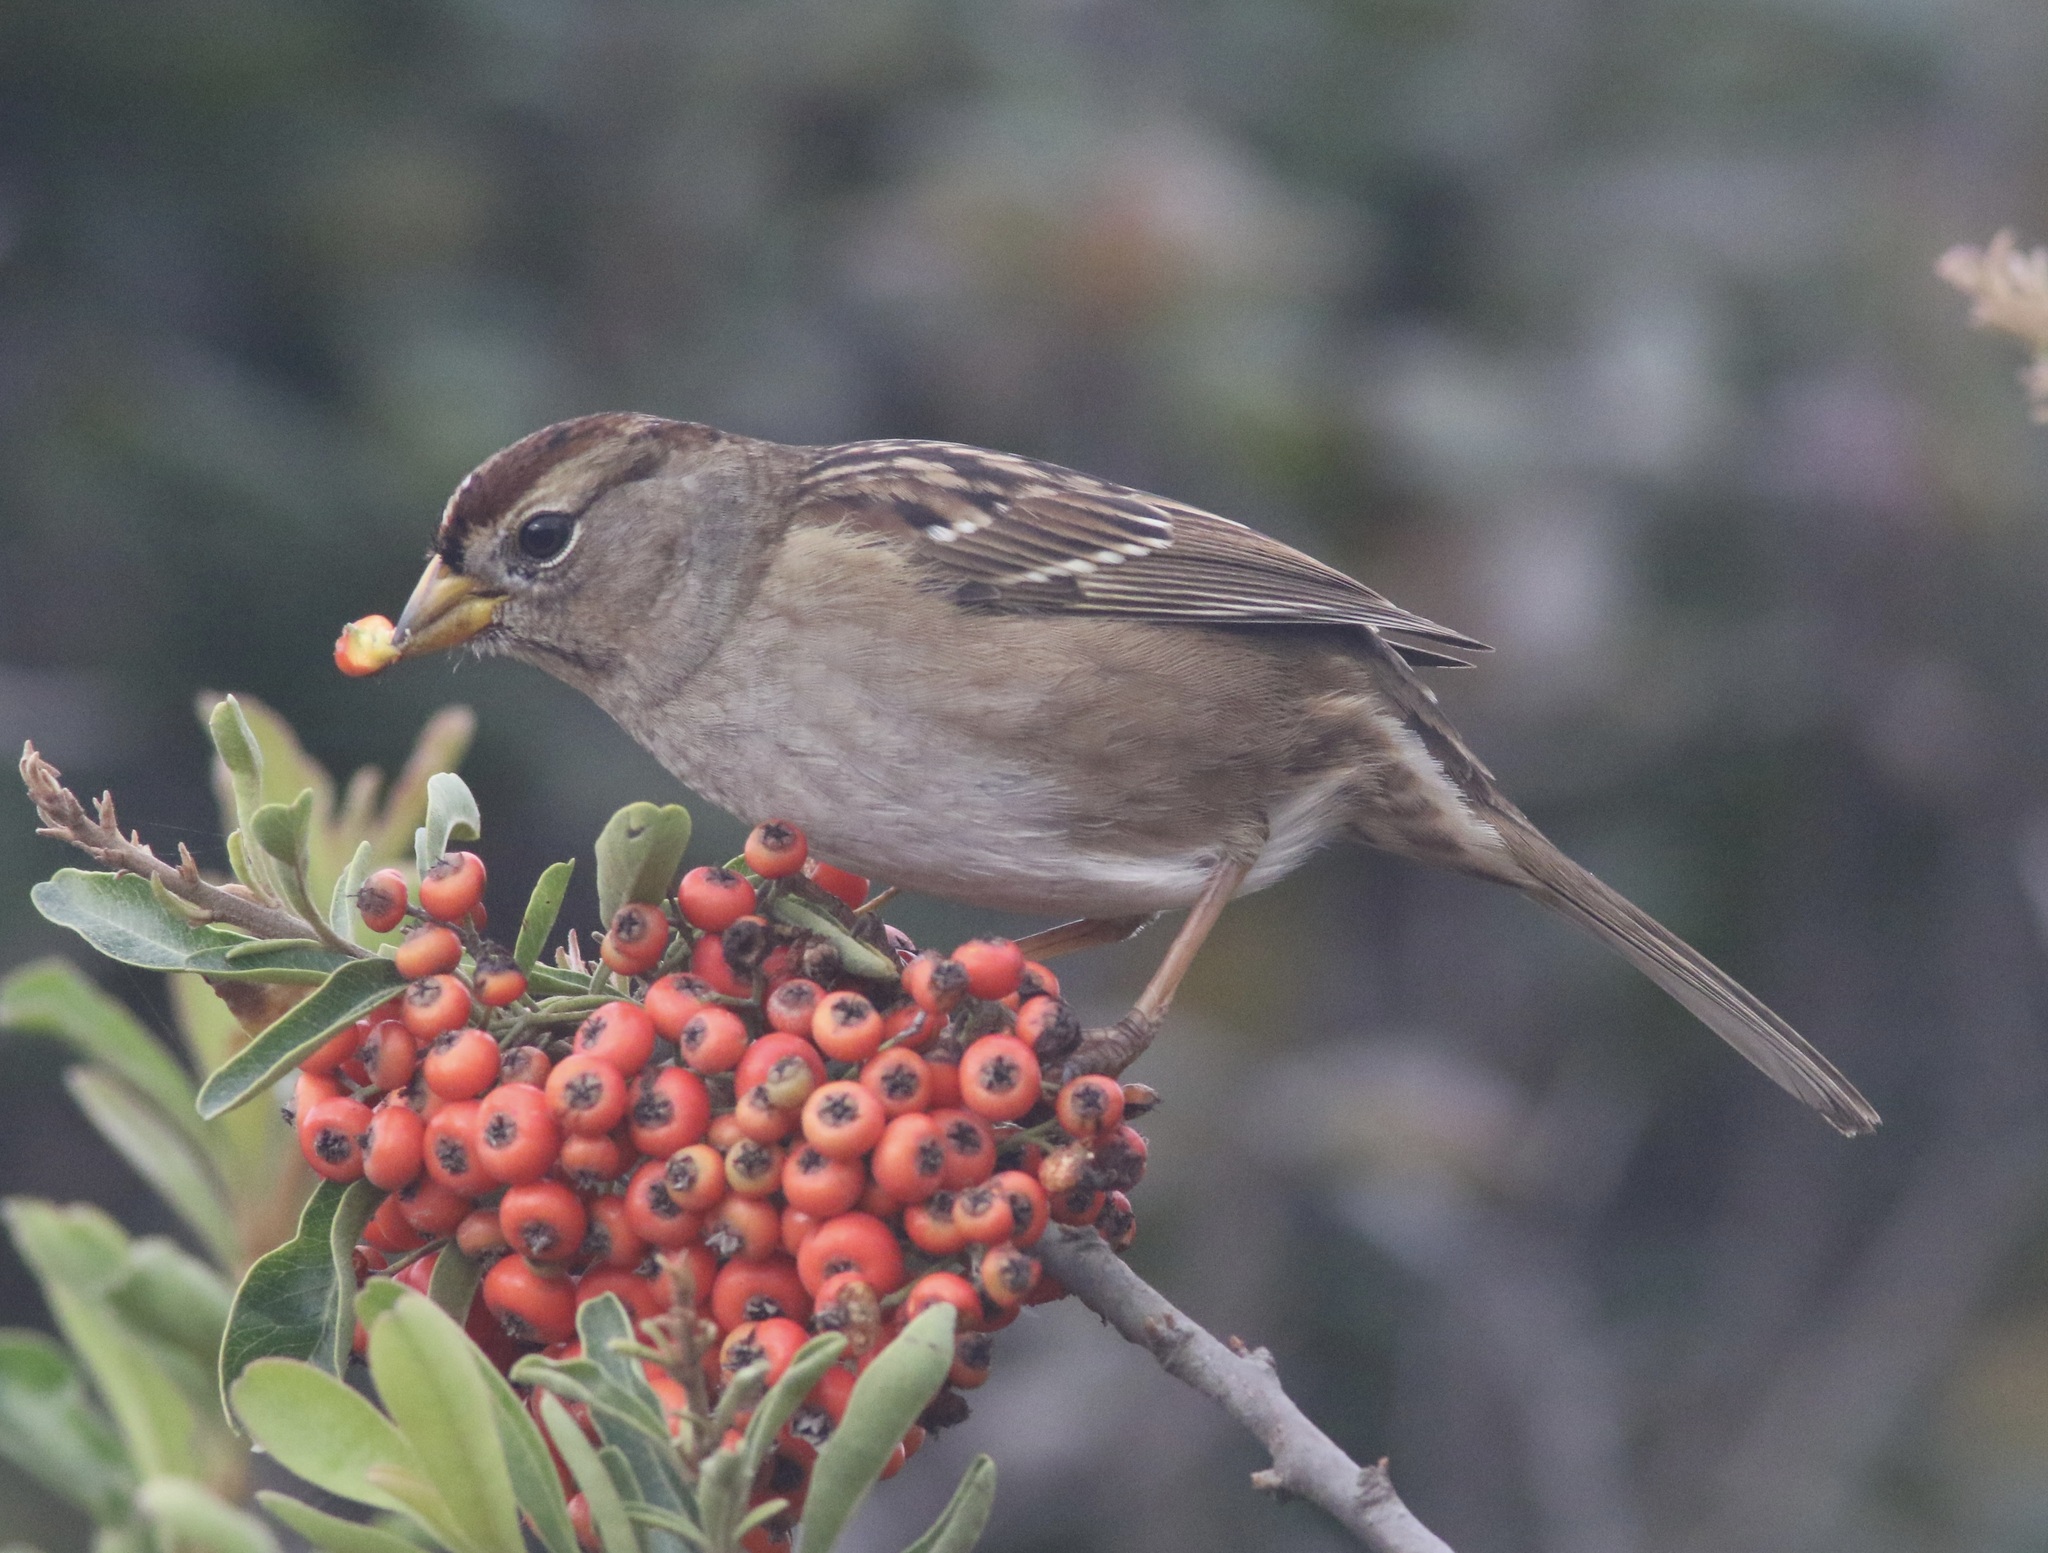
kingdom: Animalia
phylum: Chordata
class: Aves
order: Passeriformes
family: Passerellidae
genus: Zonotrichia
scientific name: Zonotrichia leucophrys
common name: White-crowned sparrow
